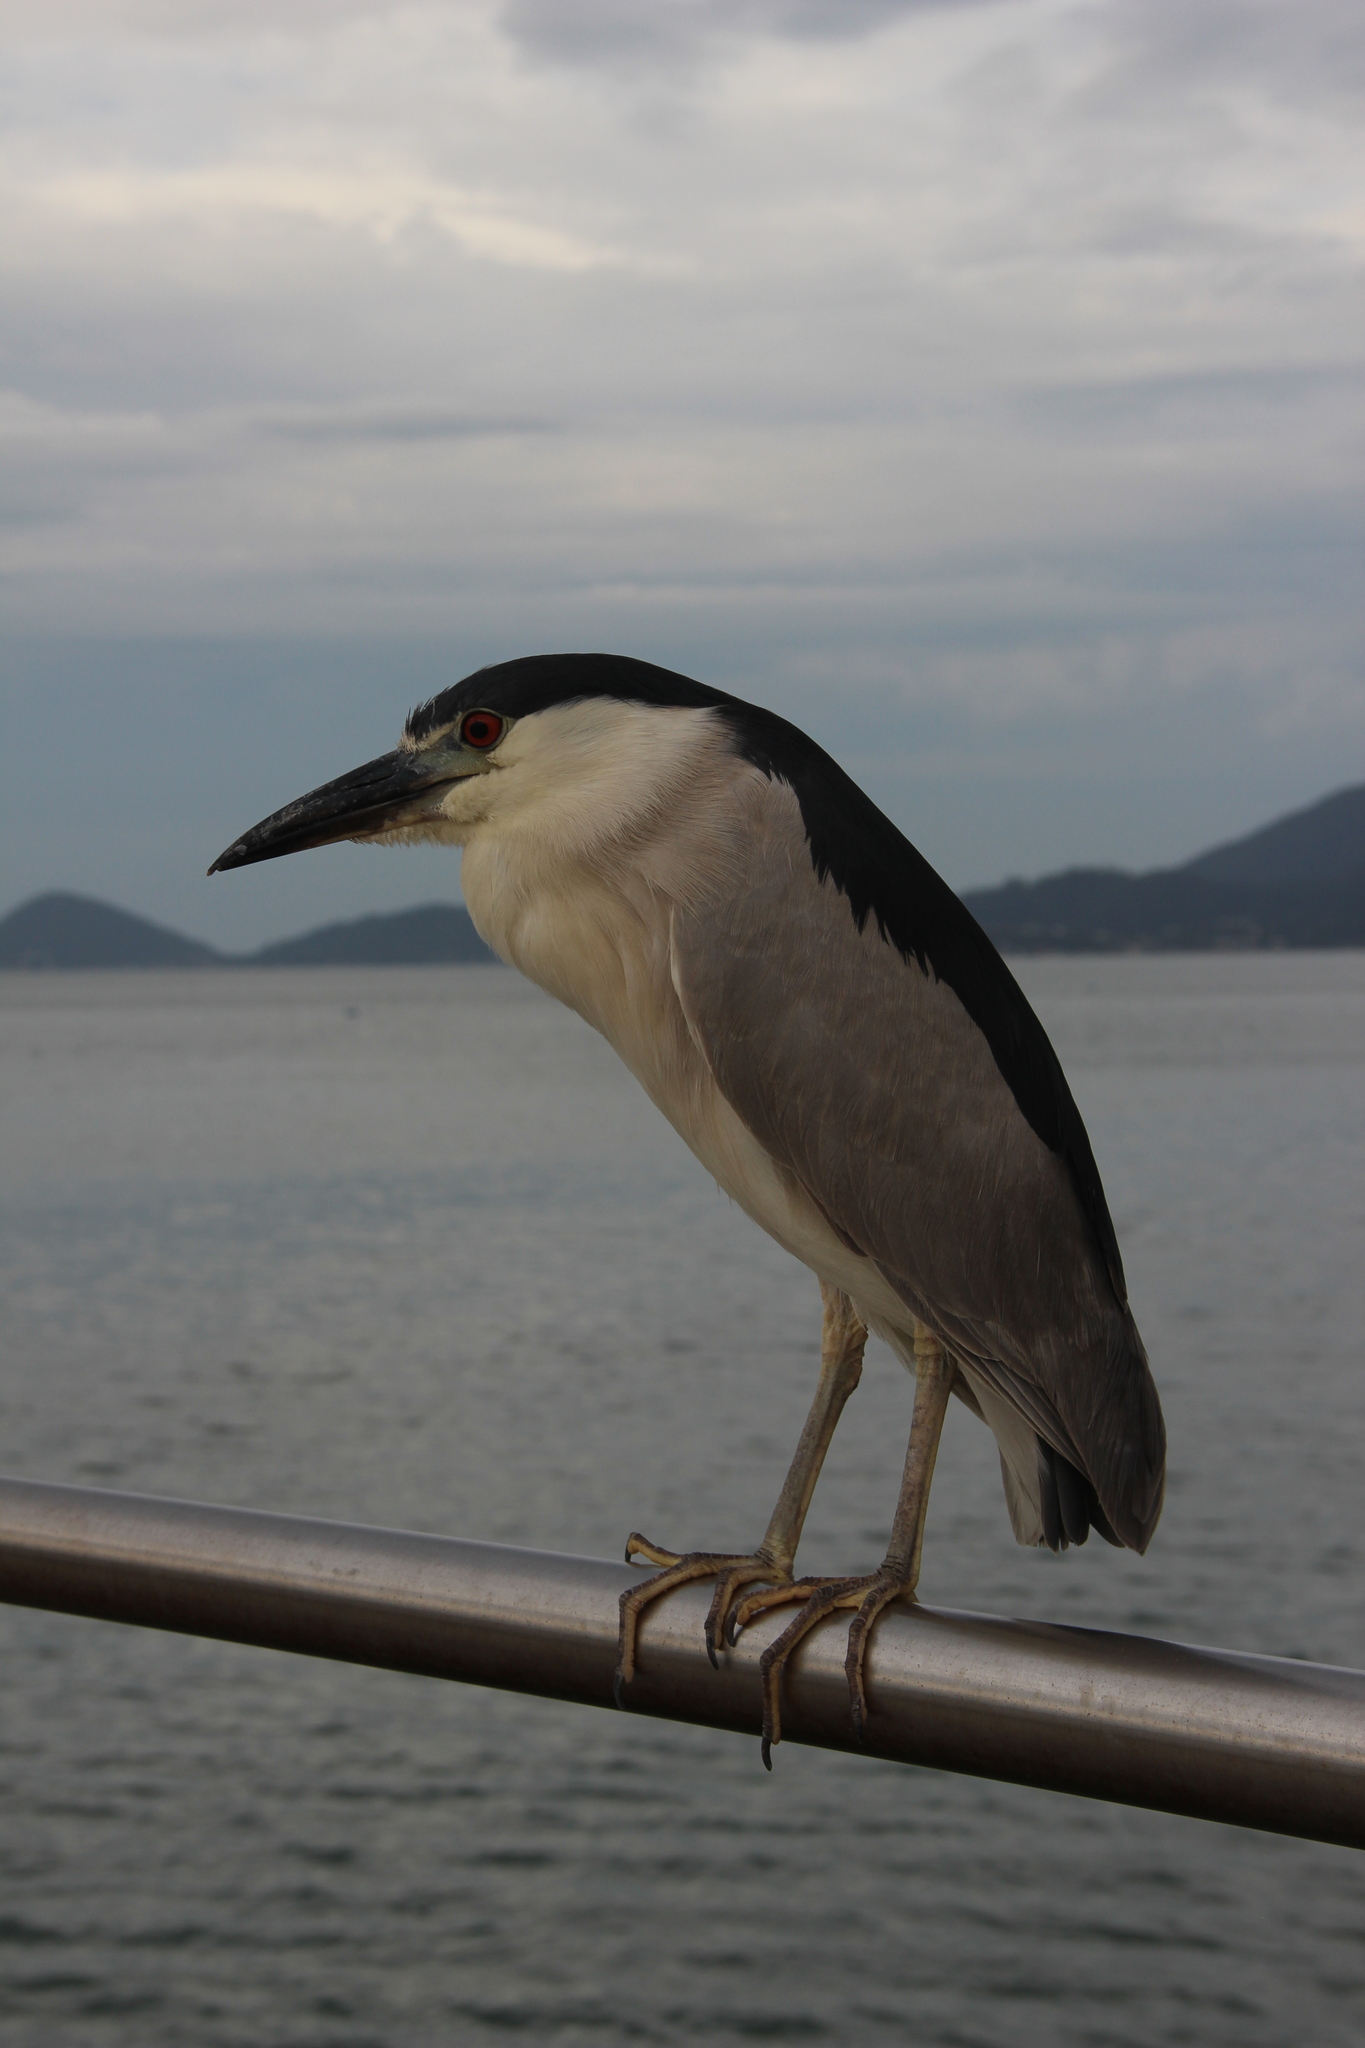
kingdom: Animalia
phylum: Chordata
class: Aves
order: Pelecaniformes
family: Ardeidae
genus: Nycticorax
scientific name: Nycticorax nycticorax
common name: Black-crowned night heron
